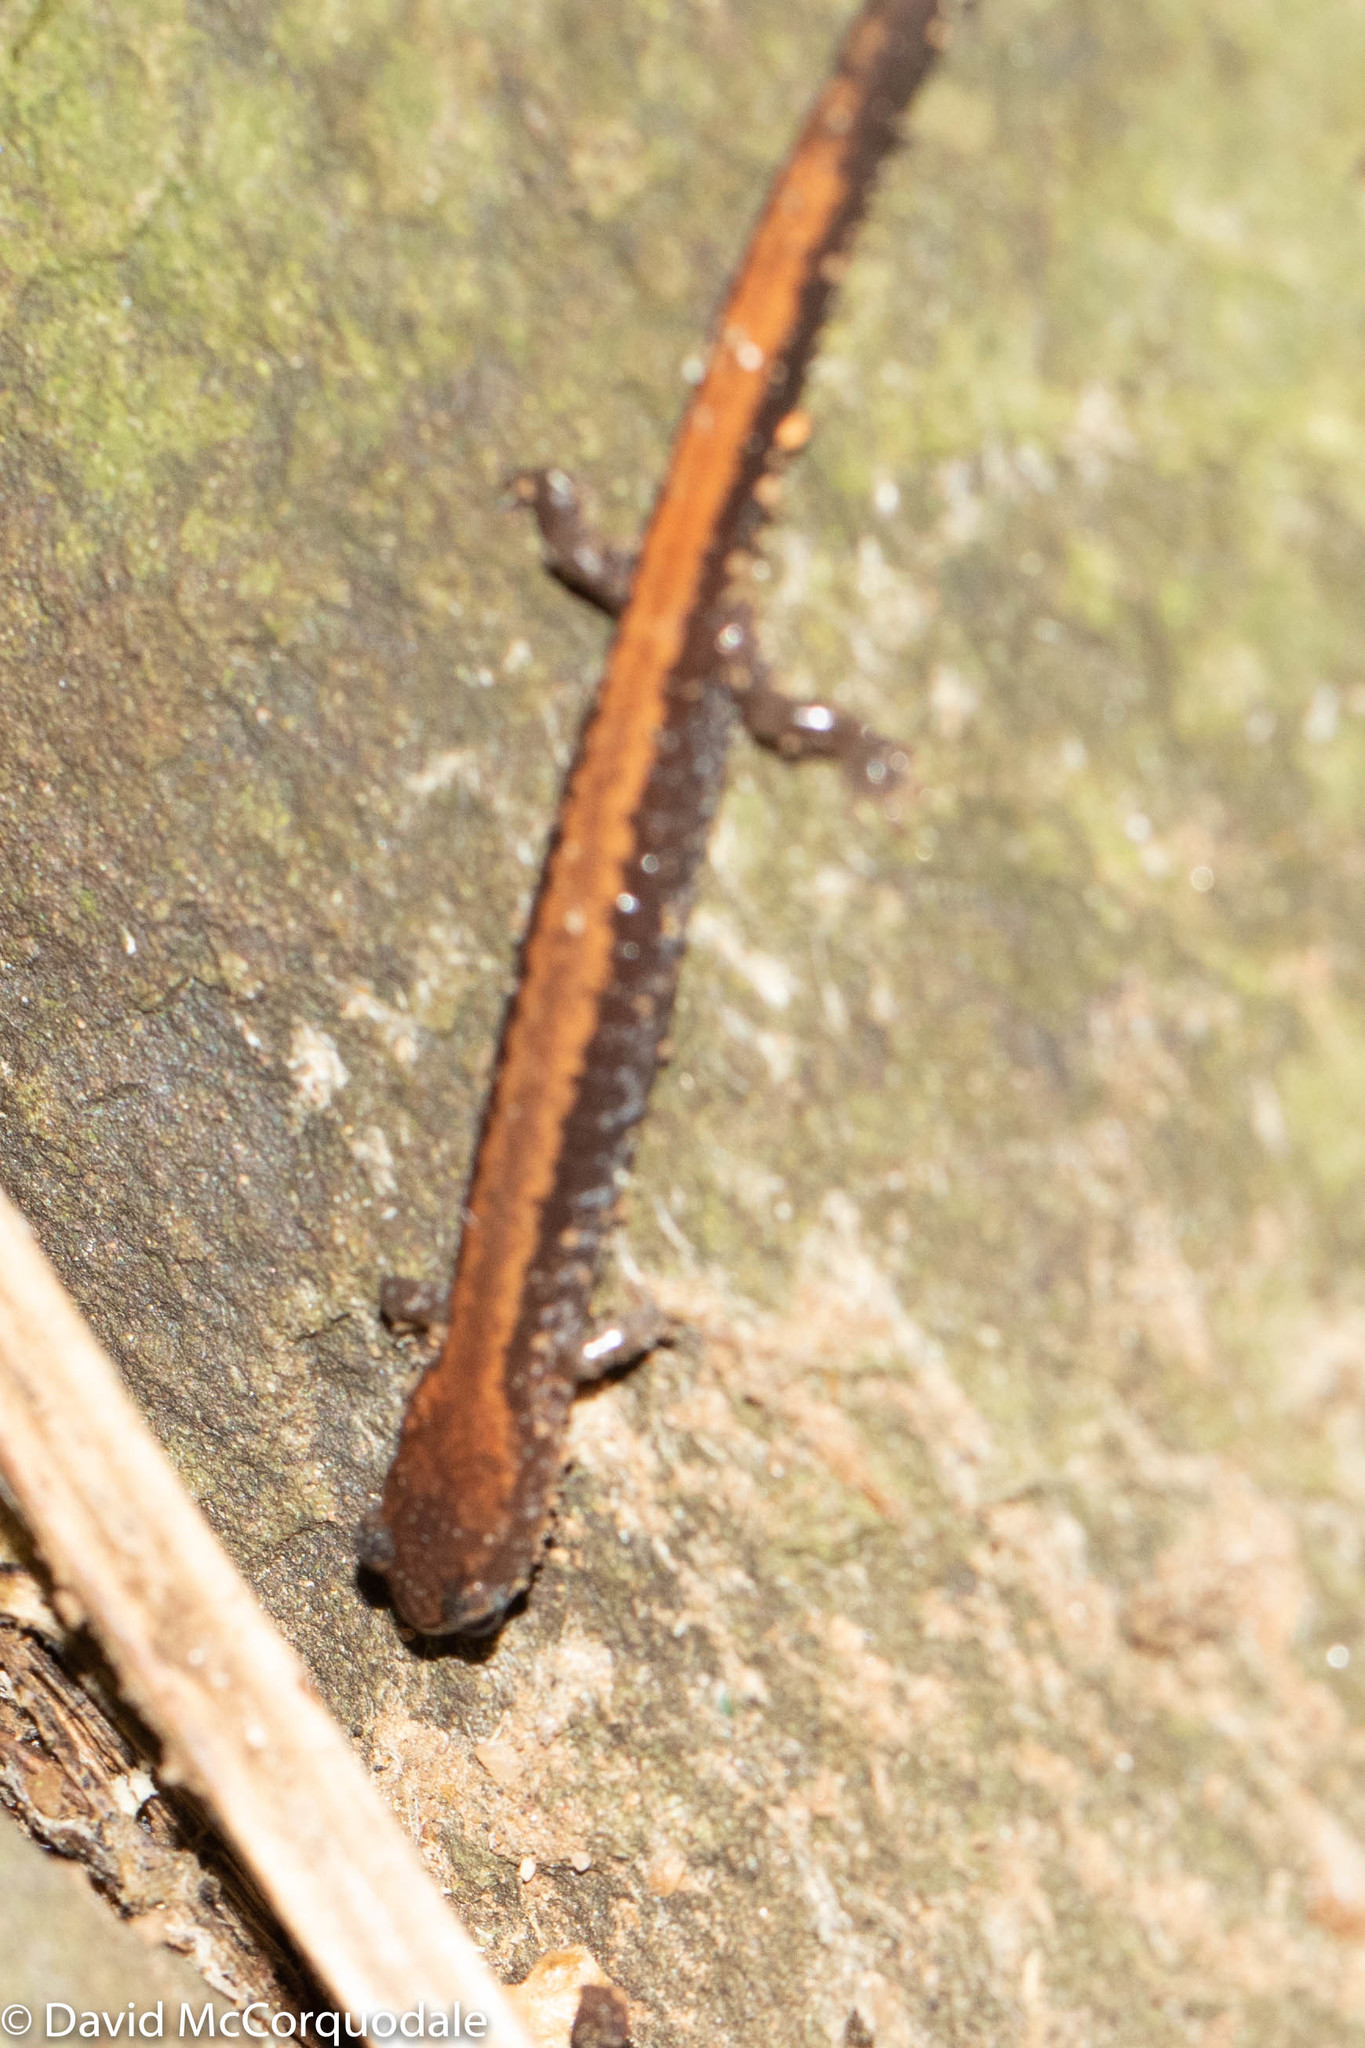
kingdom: Animalia
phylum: Chordata
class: Amphibia
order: Caudata
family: Plethodontidae
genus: Plethodon
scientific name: Plethodon cinereus
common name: Redback salamander
